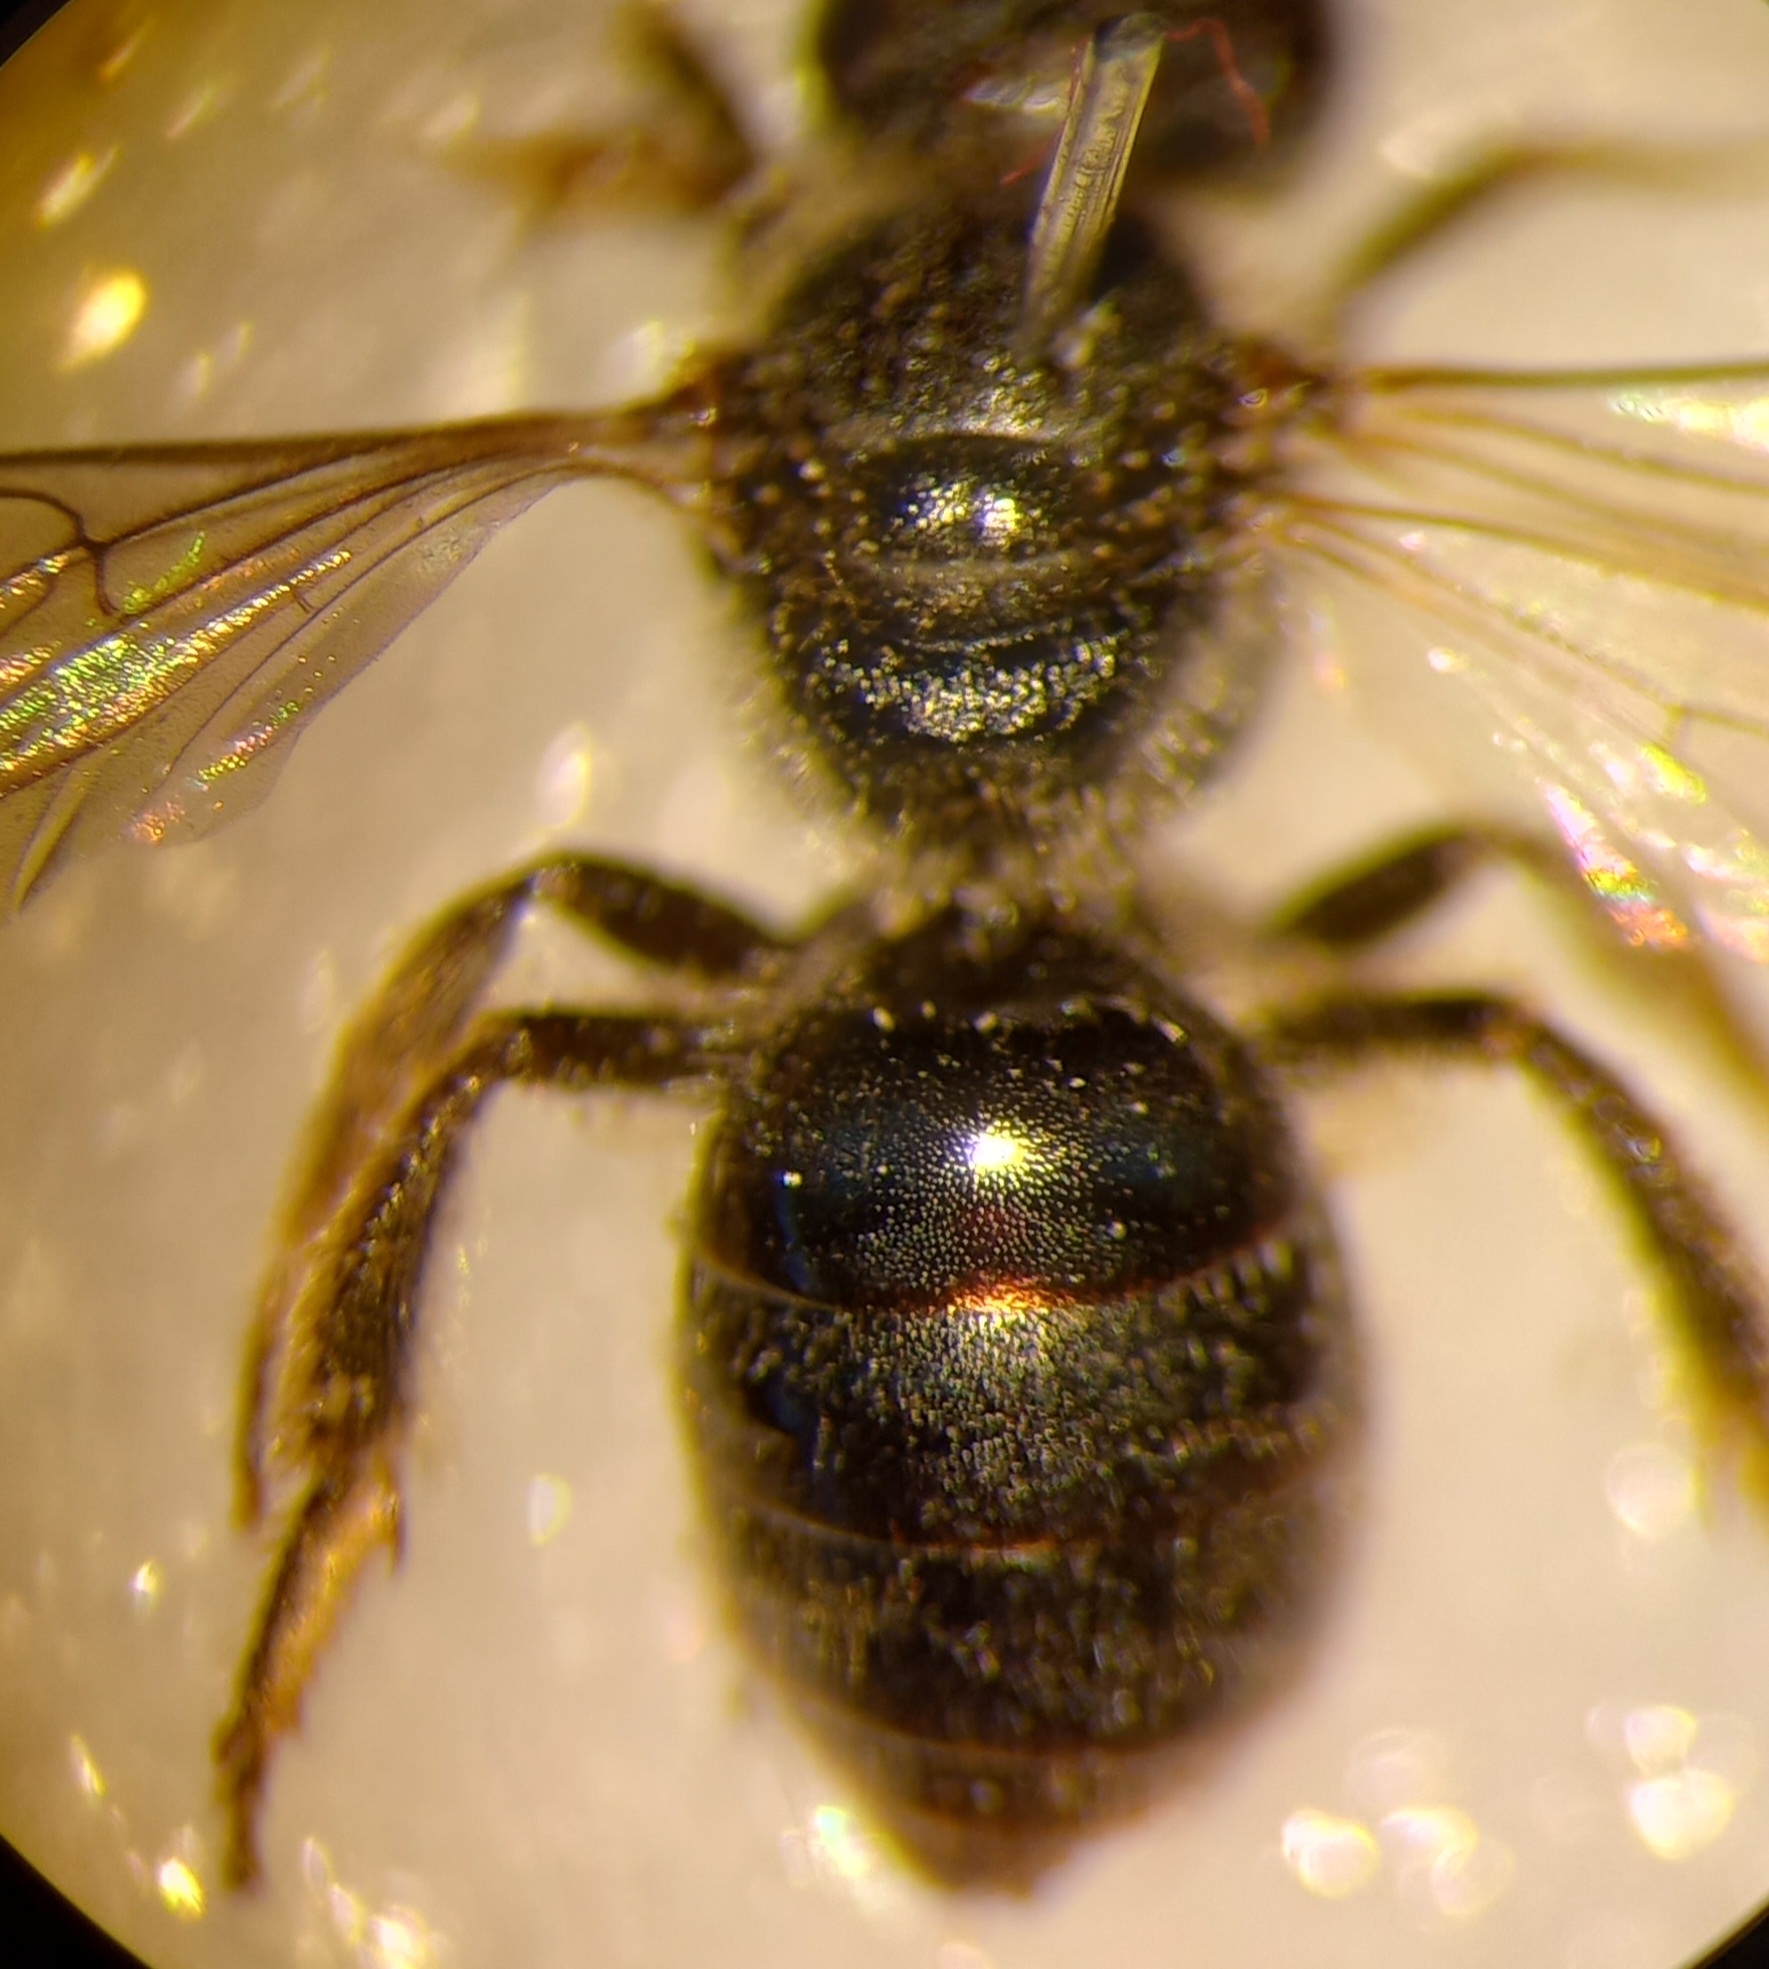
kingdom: Animalia
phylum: Arthropoda
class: Insecta
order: Hymenoptera
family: Halictidae
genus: Lasioglossum
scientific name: Lasioglossum punctatissimum
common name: Long-faced furrow bee
